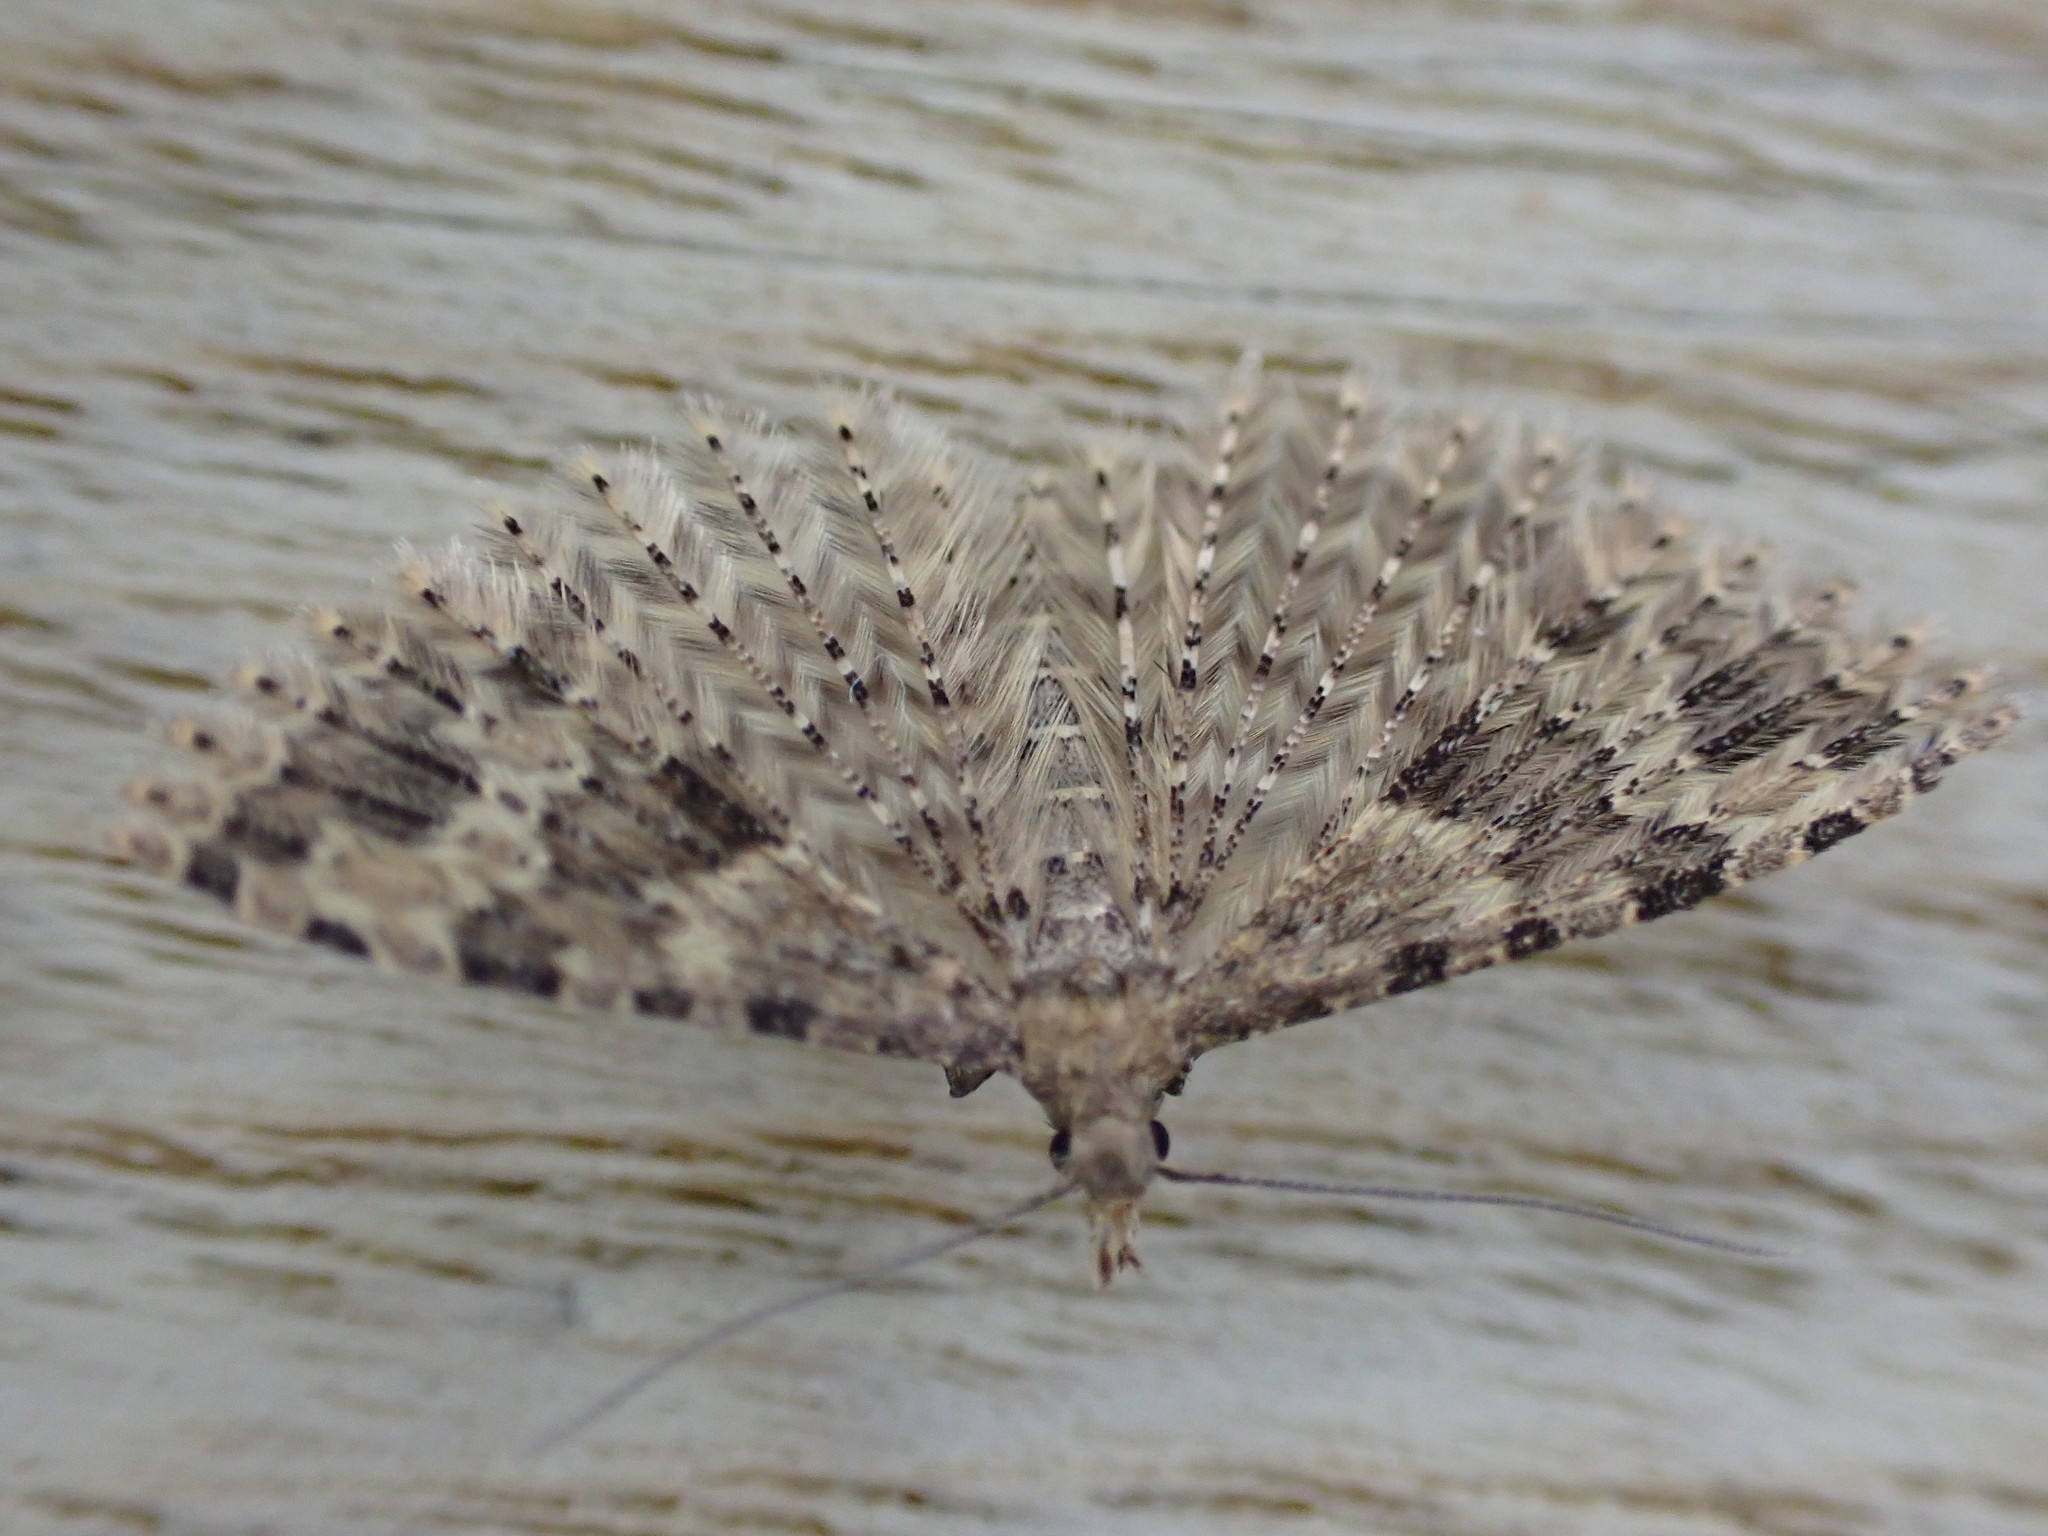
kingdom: Animalia
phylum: Arthropoda
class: Insecta
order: Lepidoptera
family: Alucitidae
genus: Alucita
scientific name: Alucita hexadactyla
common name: Twenty-plume moth
